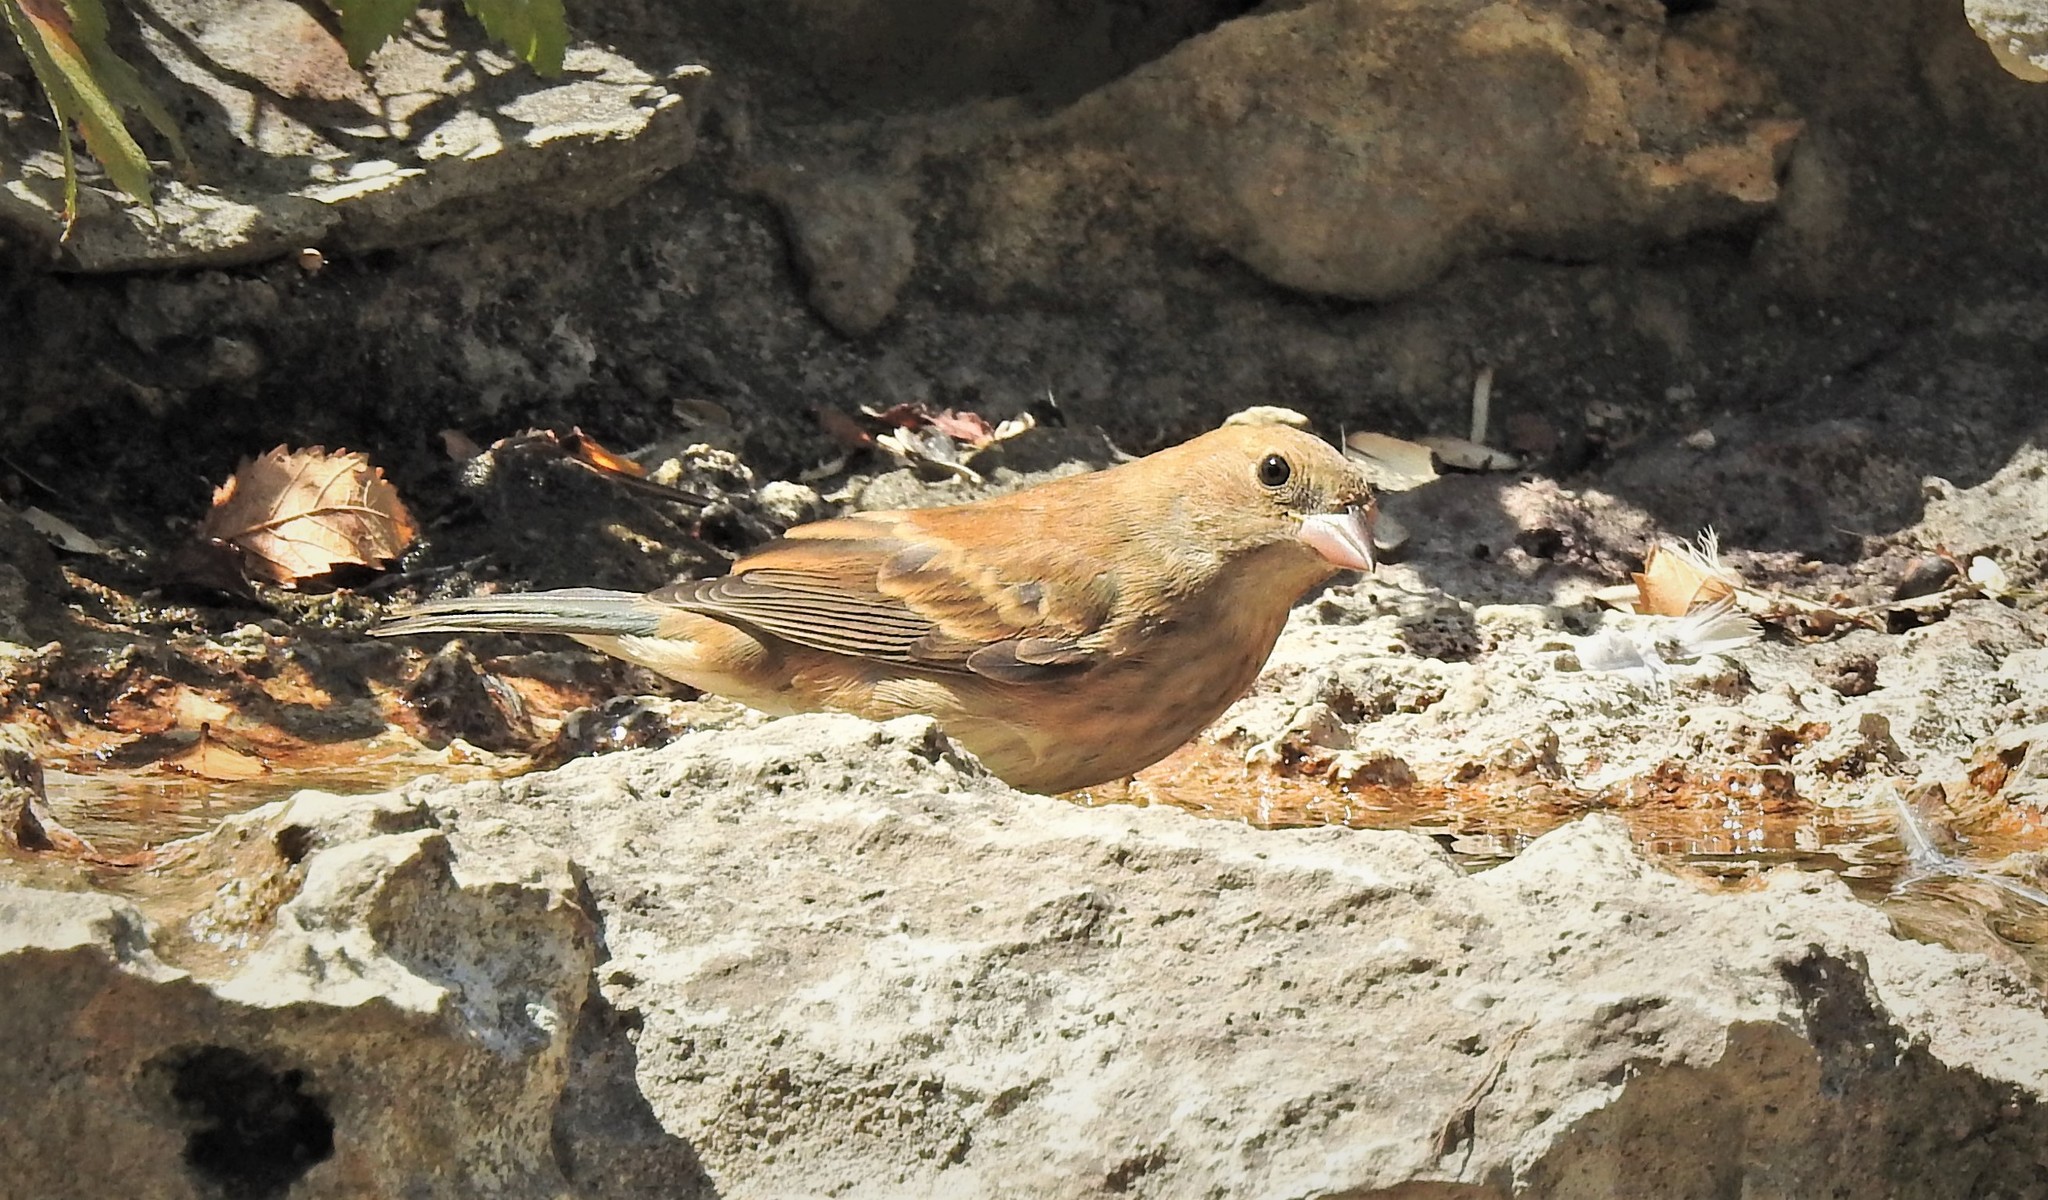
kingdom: Animalia
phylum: Chordata
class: Aves
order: Passeriformes
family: Cardinalidae
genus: Passerina
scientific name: Passerina cyanea
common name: Indigo bunting
